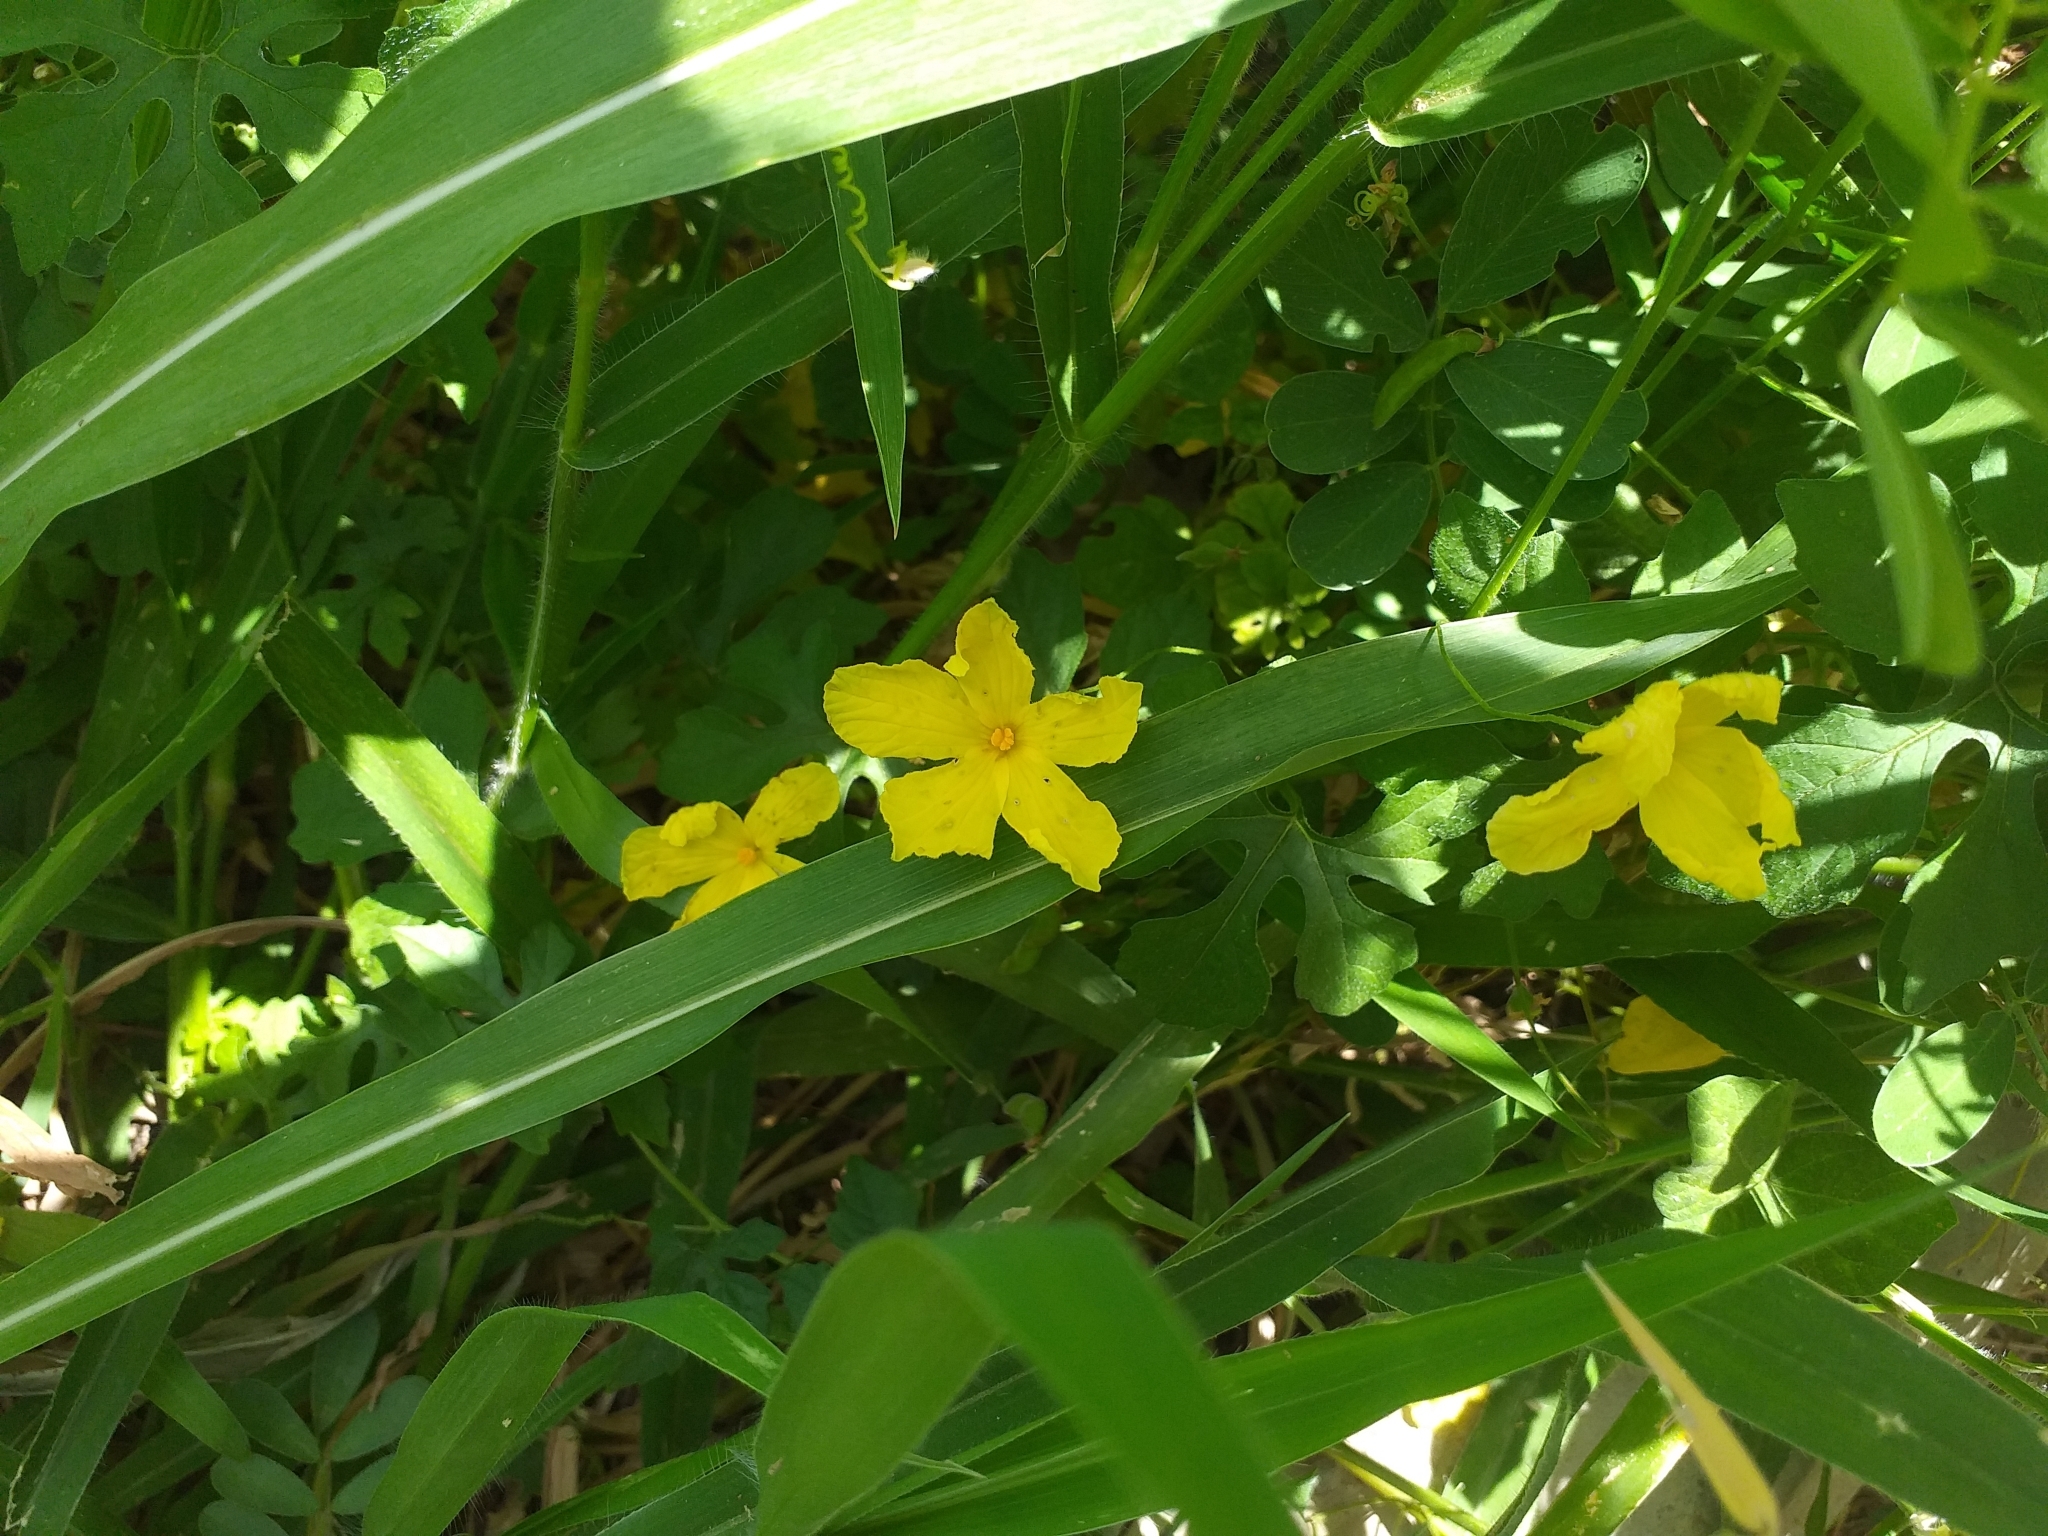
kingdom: Plantae
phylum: Tracheophyta
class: Magnoliopsida
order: Cucurbitales
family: Cucurbitaceae
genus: Momordica
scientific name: Momordica charantia
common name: Balsampear
